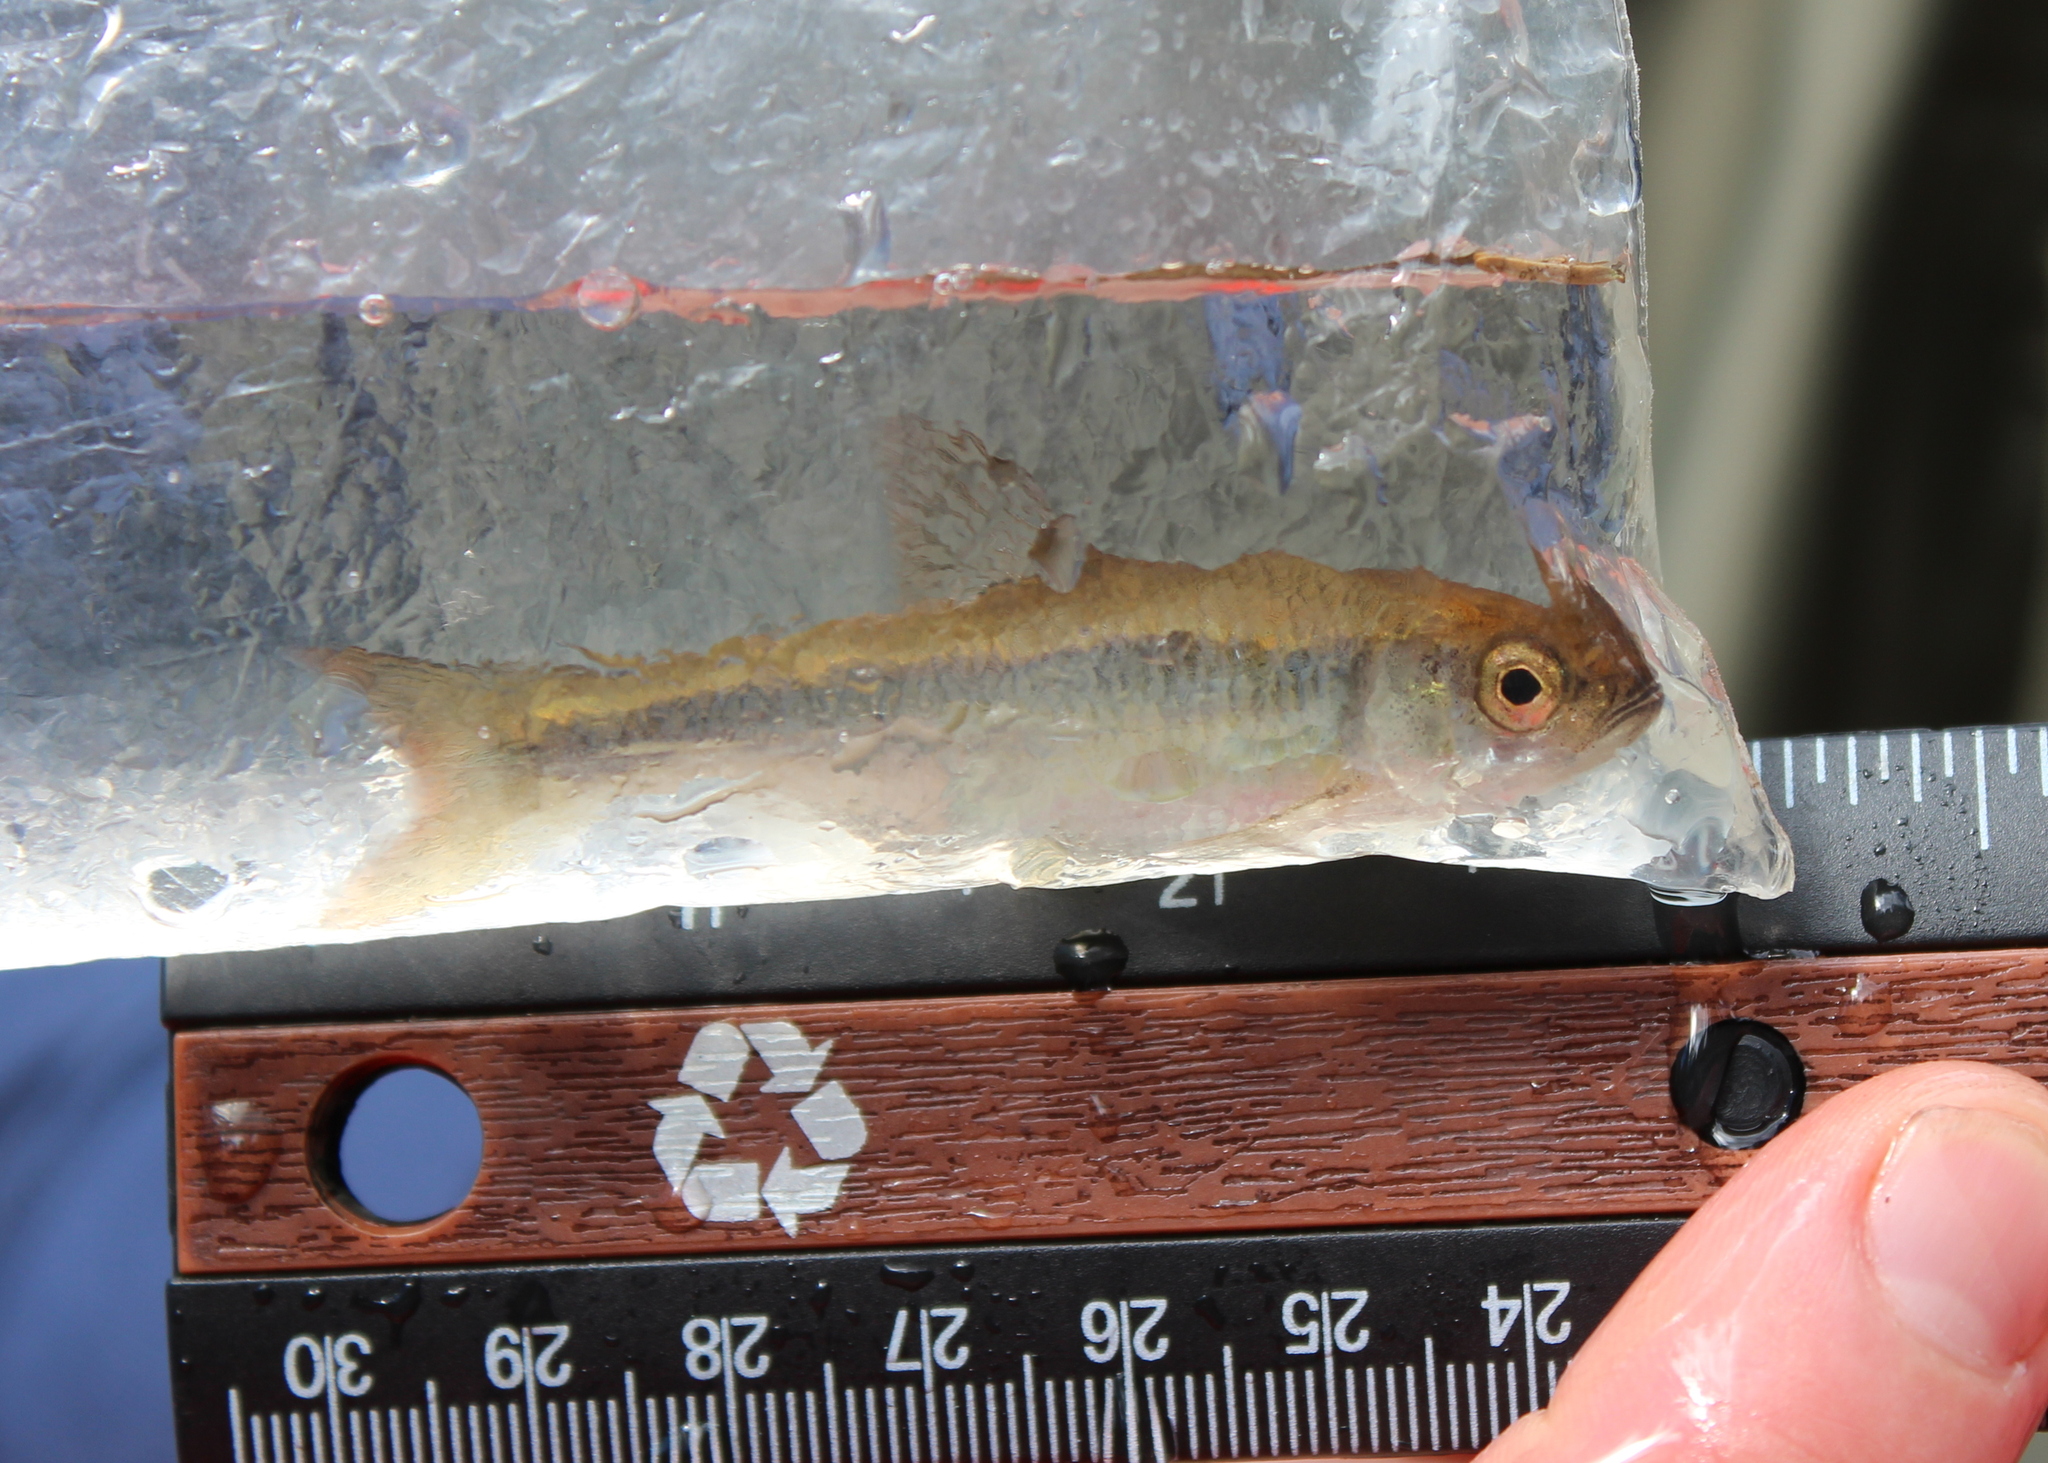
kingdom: Animalia
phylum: Chordata
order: Cypriniformes
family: Cyprinidae
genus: Luxilus
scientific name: Luxilus cornutus
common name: Common shiner
